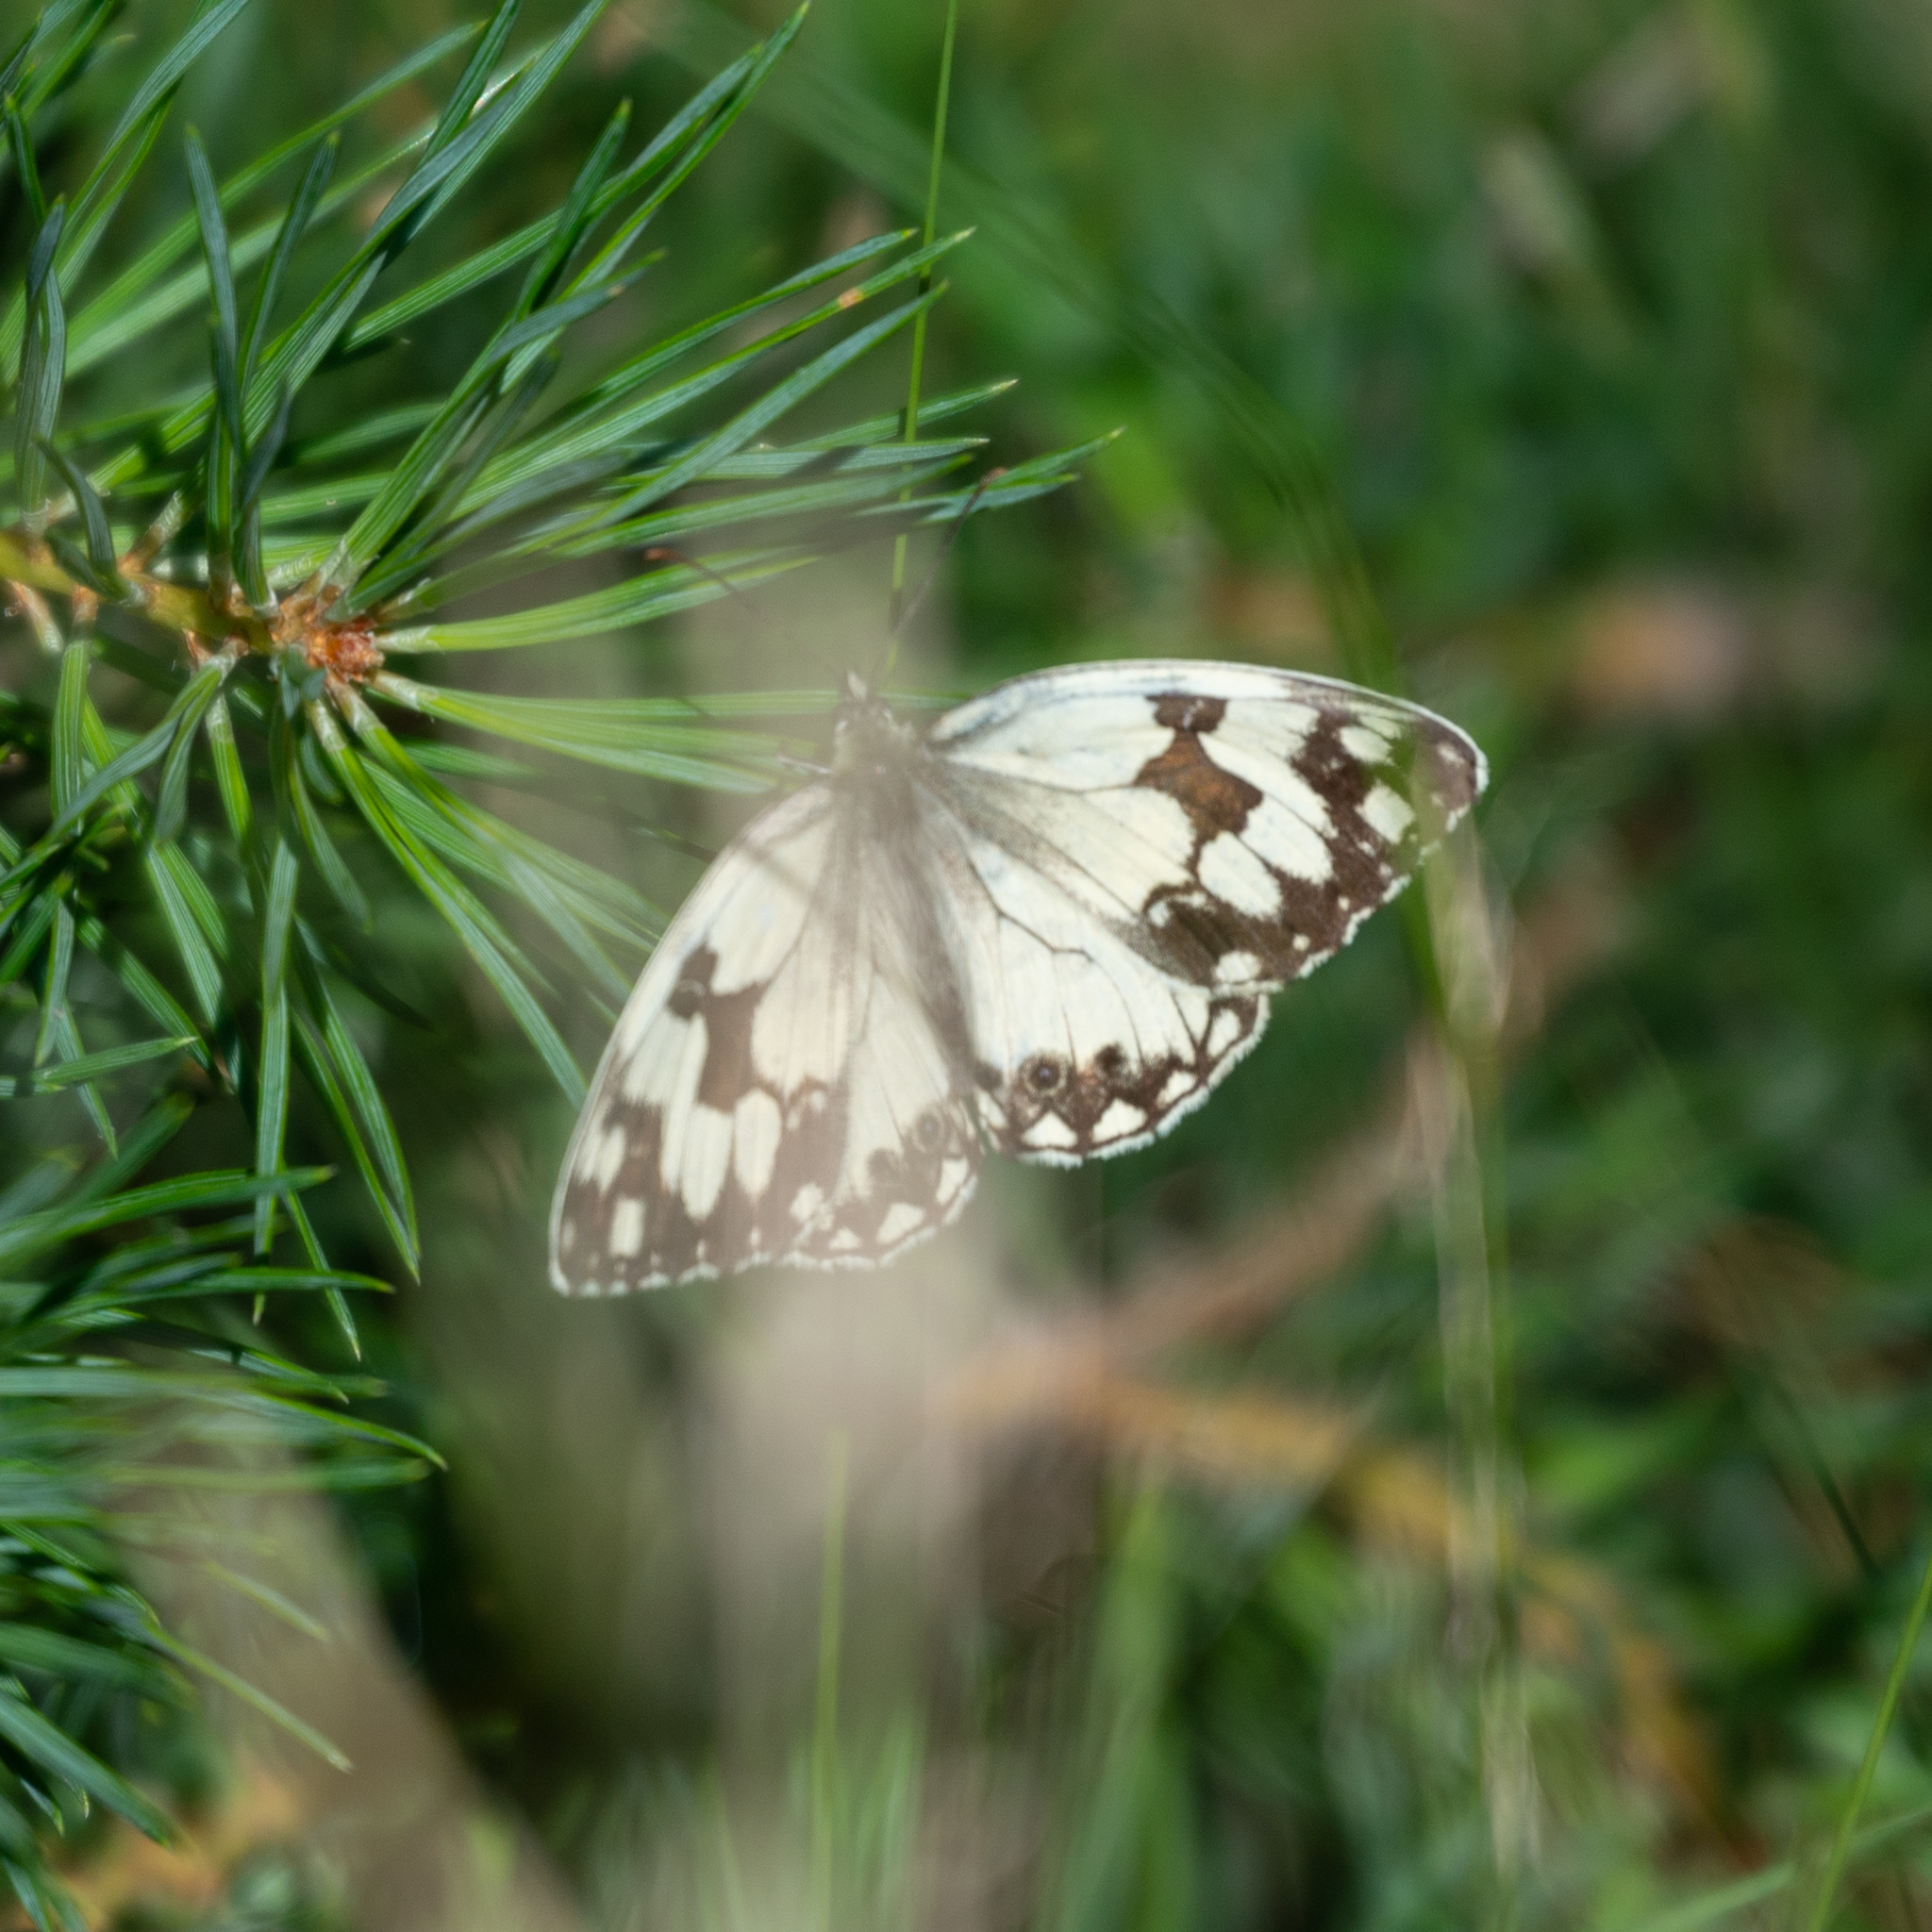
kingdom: Animalia
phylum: Arthropoda
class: Insecta
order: Lepidoptera
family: Nymphalidae
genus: Melanargia
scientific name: Melanargia lachesis
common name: Iberian marbled white
